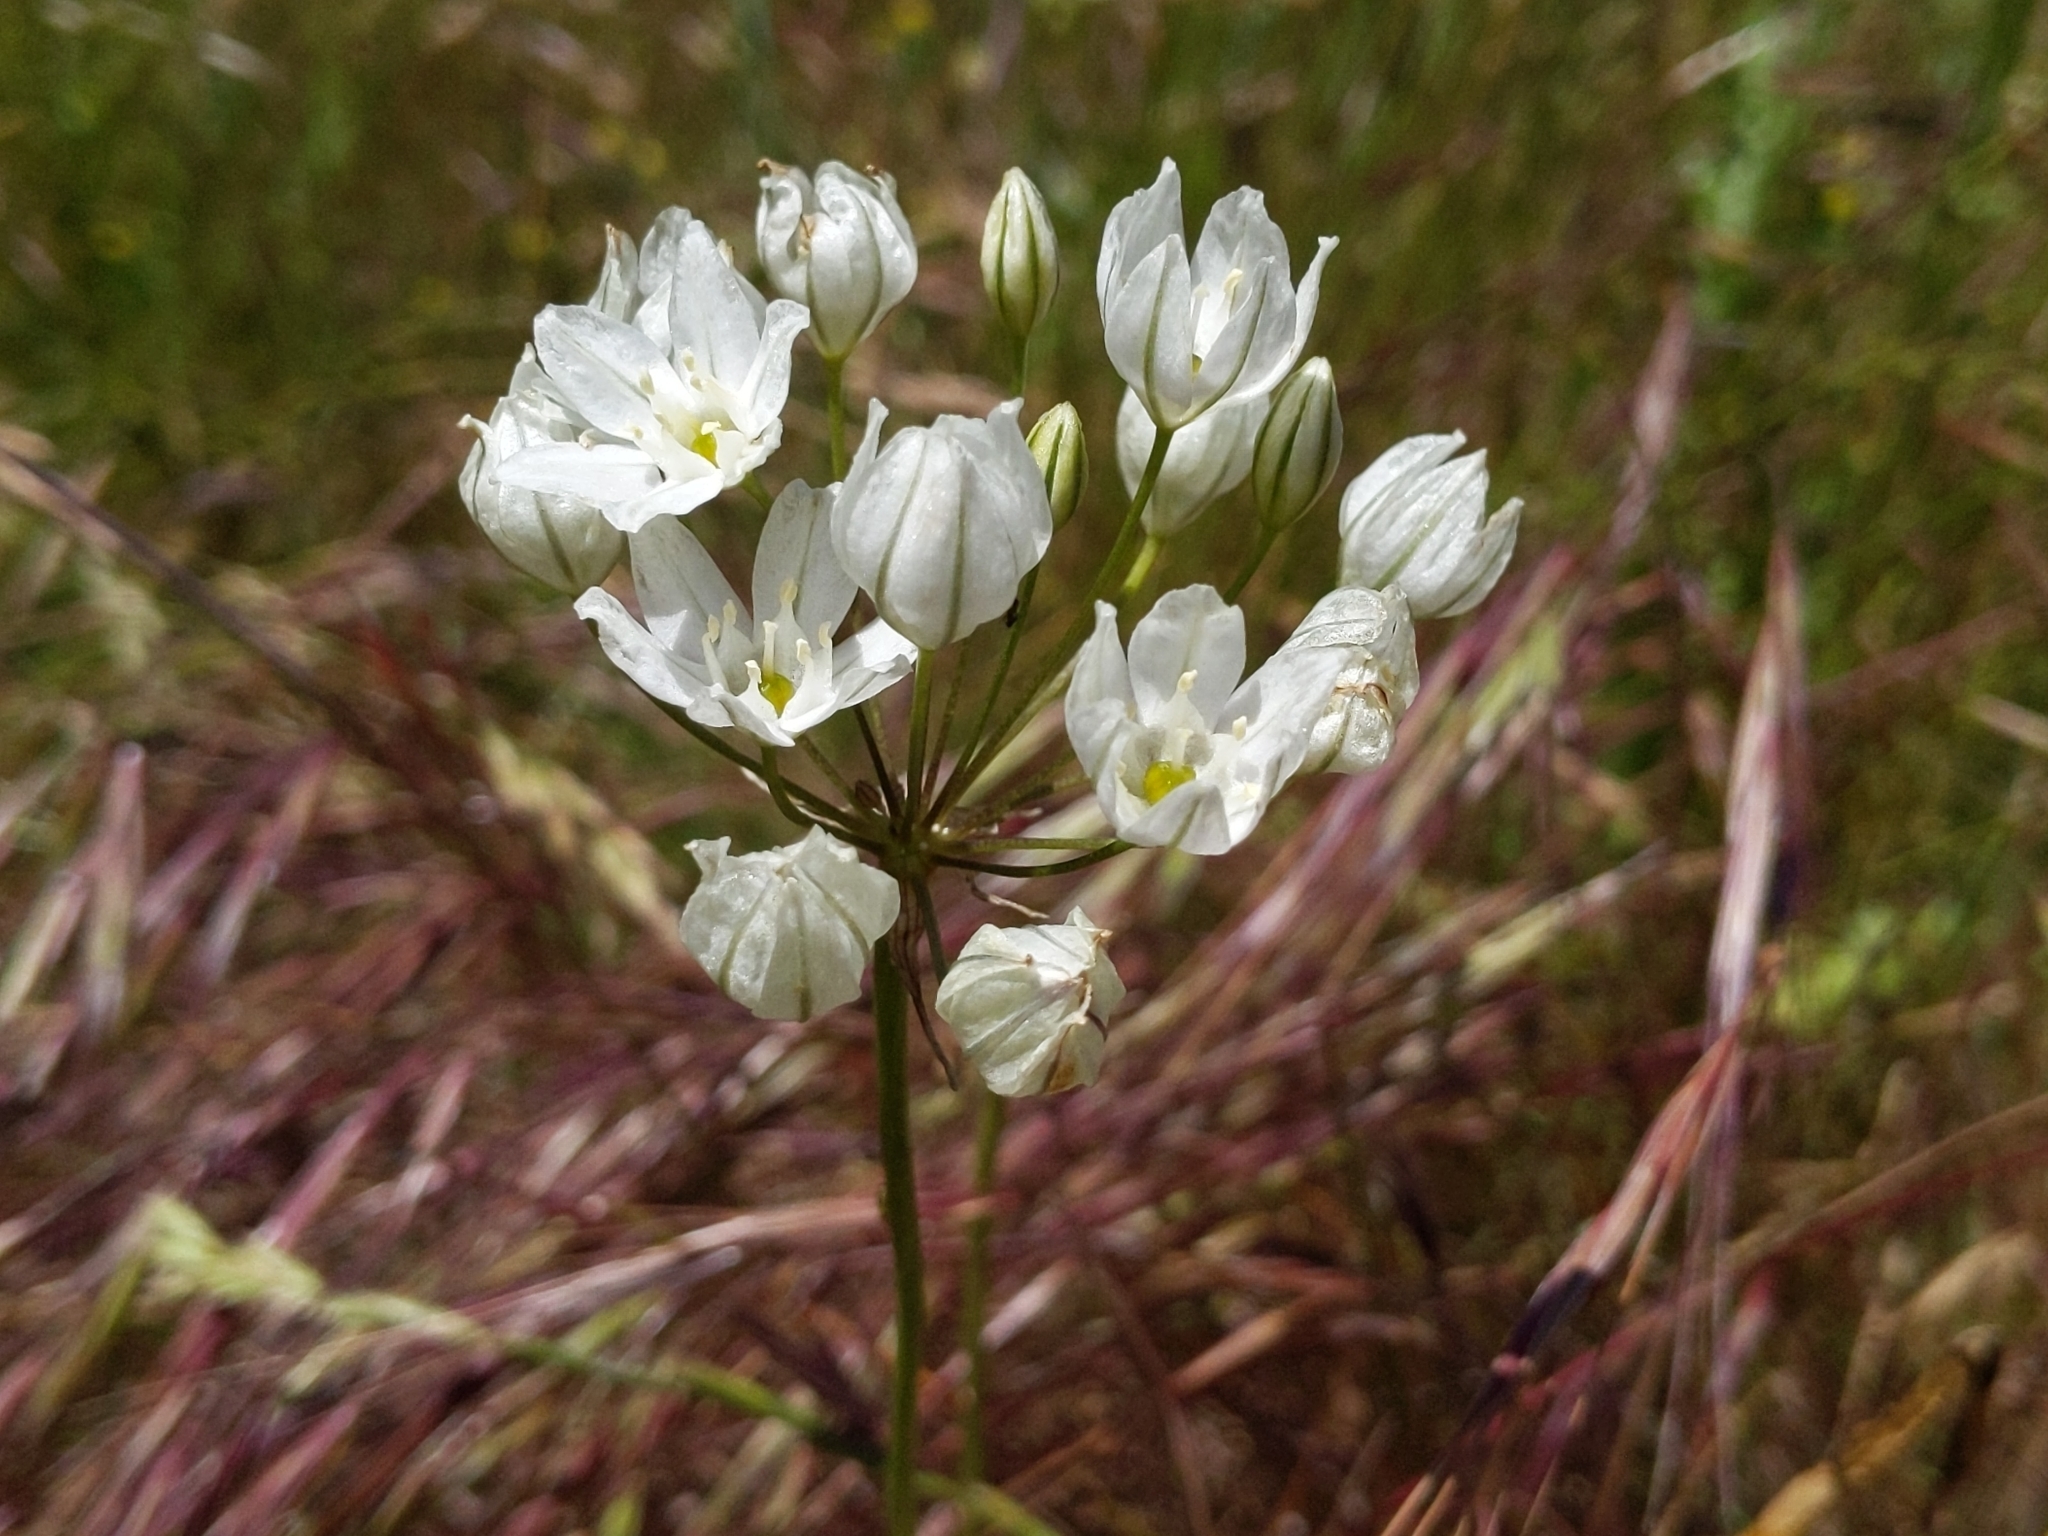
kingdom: Plantae
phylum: Tracheophyta
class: Liliopsida
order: Asparagales
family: Asparagaceae
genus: Triteleia
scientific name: Triteleia hyacinthina
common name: White brodiaea
